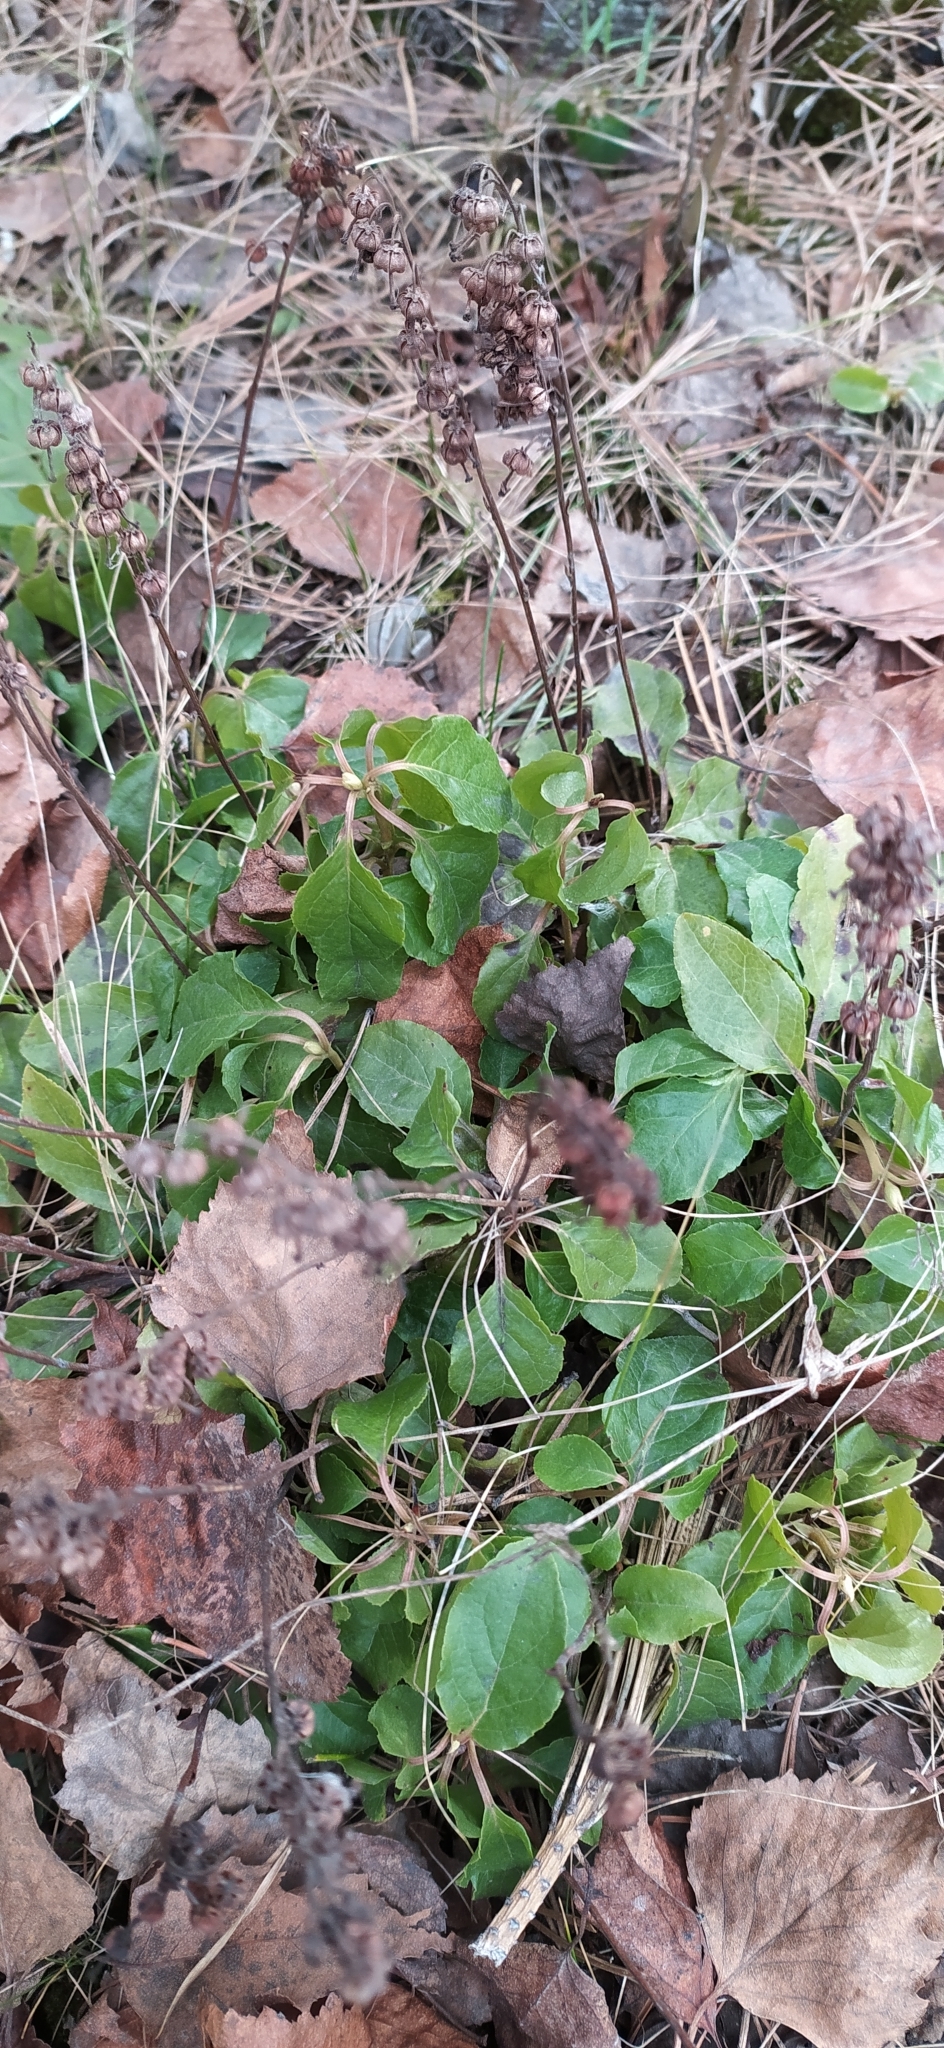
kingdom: Plantae
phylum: Tracheophyta
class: Magnoliopsida
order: Ericales
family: Ericaceae
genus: Orthilia
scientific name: Orthilia secunda
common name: One-sided orthilia
